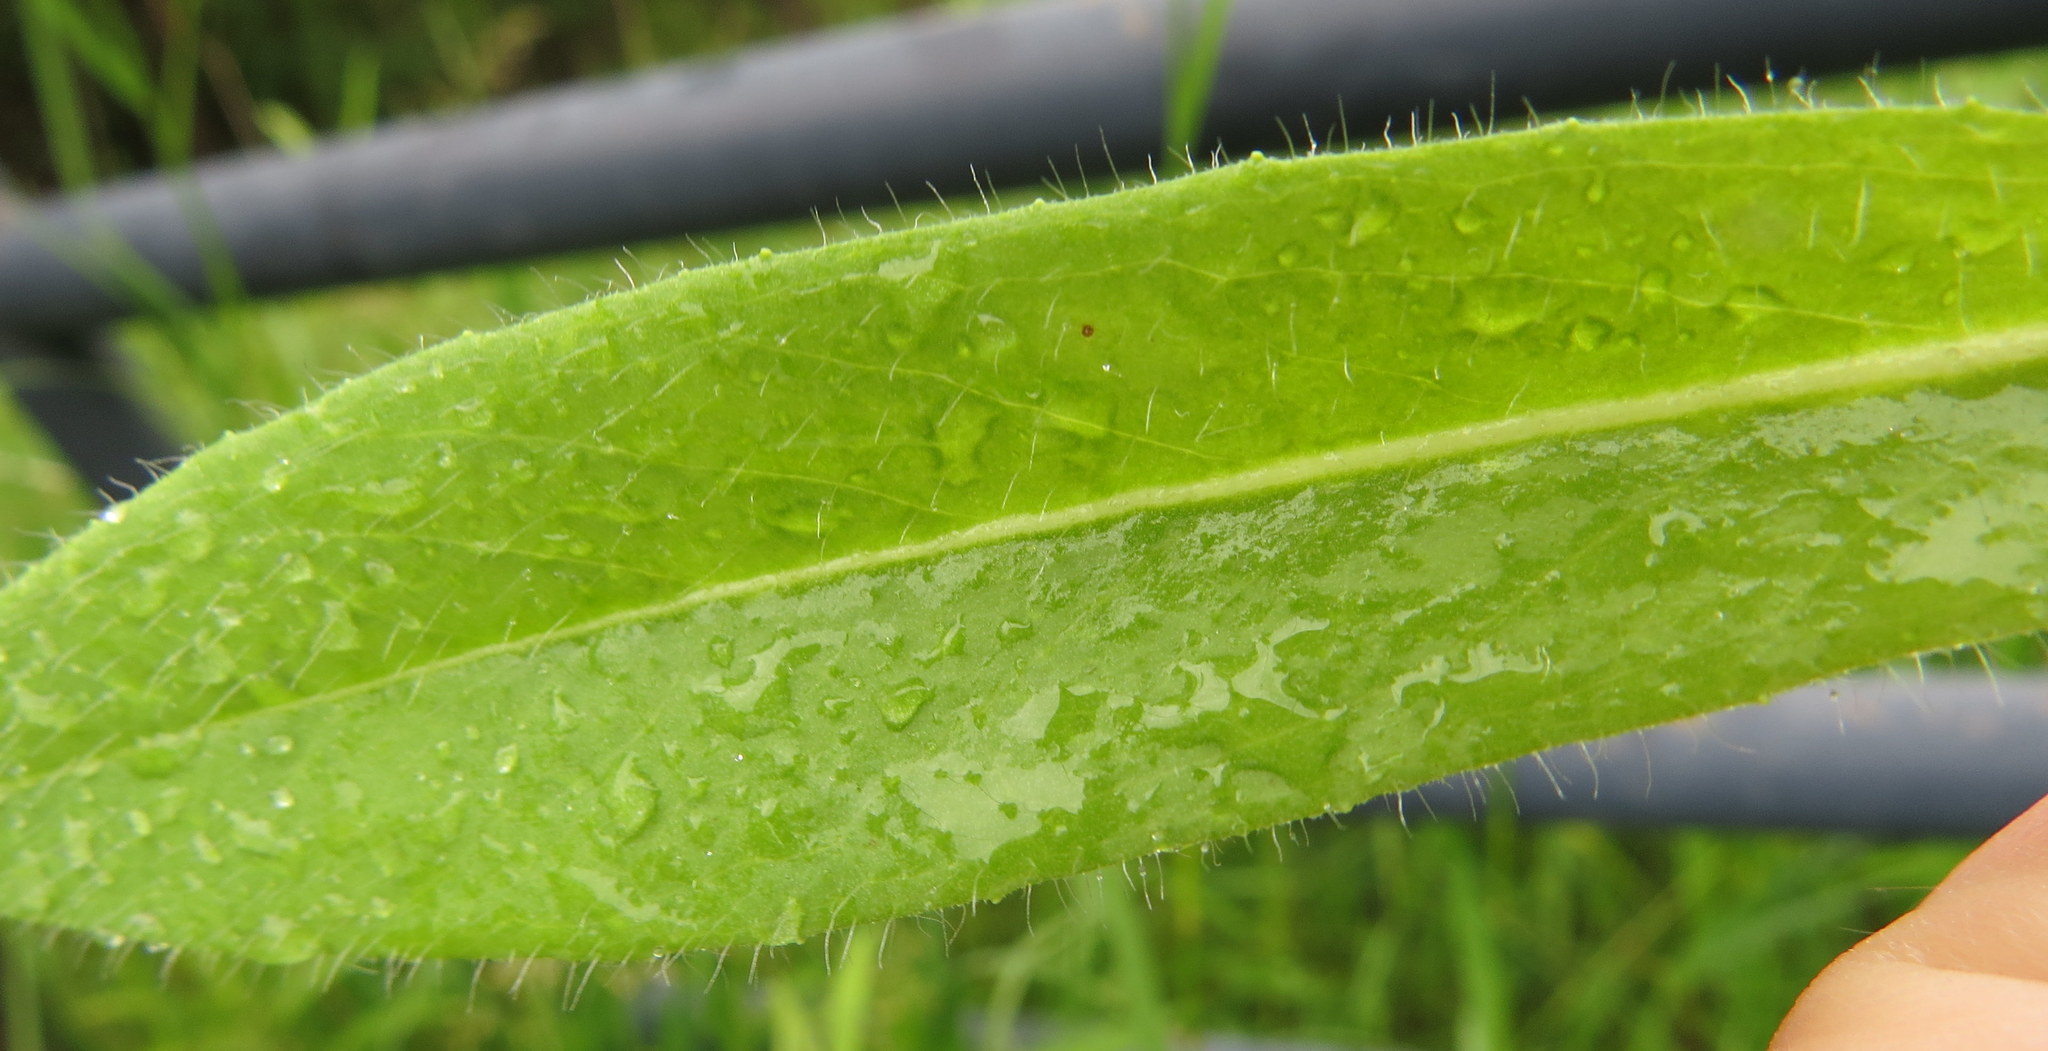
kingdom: Plantae
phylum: Tracheophyta
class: Magnoliopsida
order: Asterales
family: Asteraceae
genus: Pilosella
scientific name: Pilosella caespitosa
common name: Yellow fox-and-cubs
